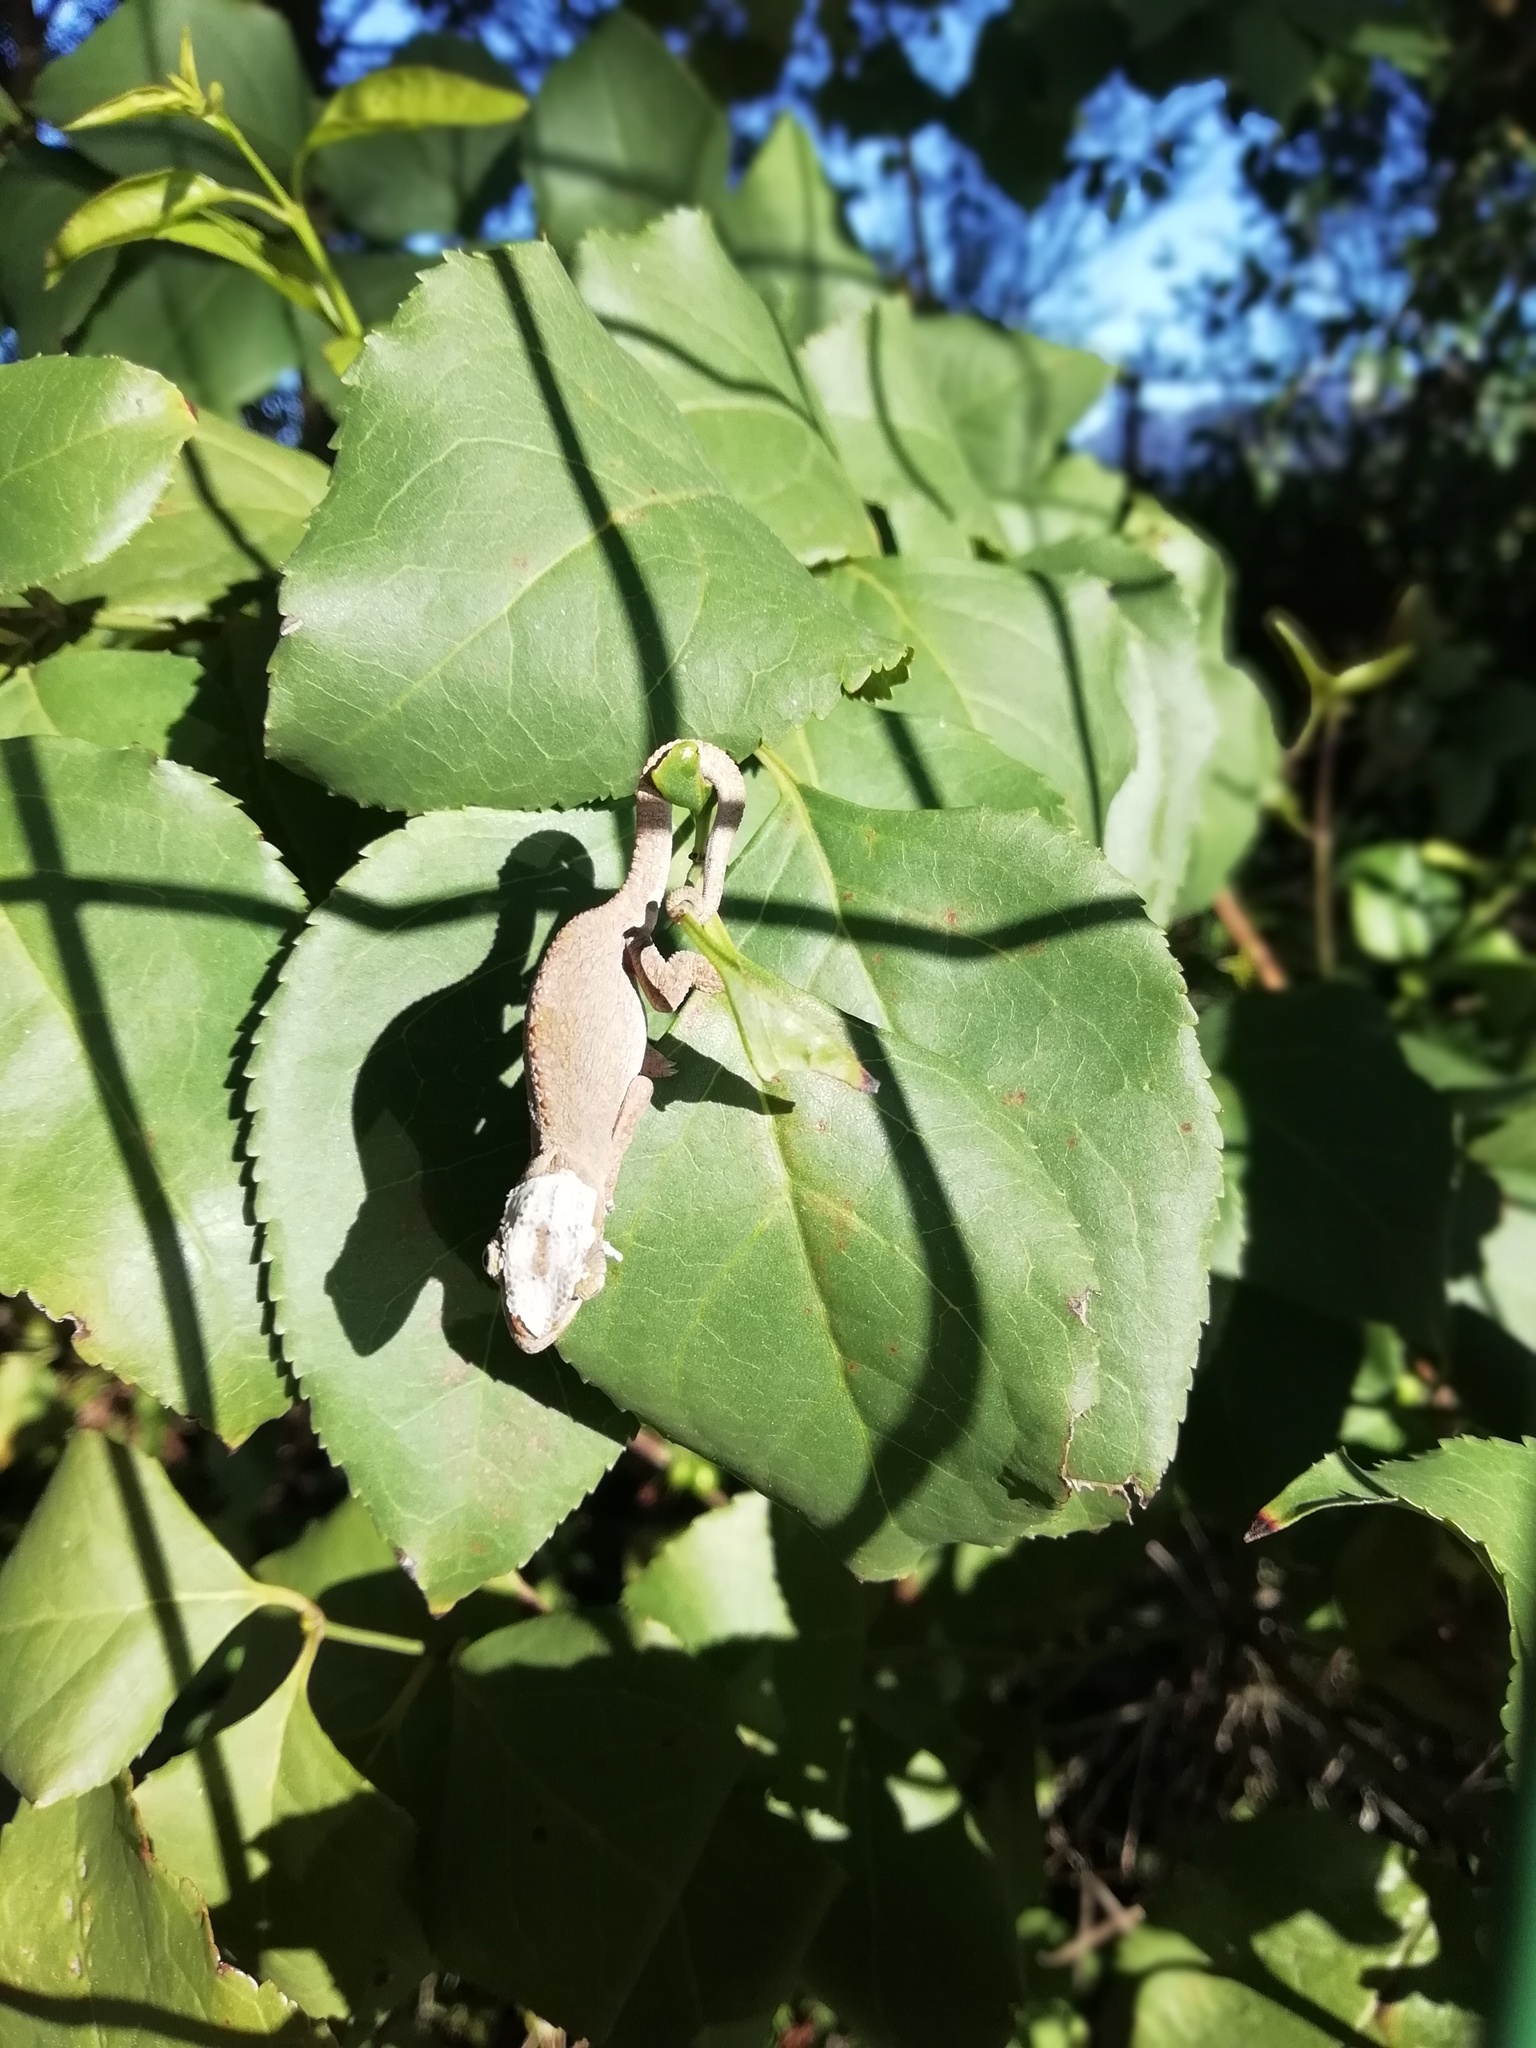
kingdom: Animalia
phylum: Chordata
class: Squamata
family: Chamaeleonidae
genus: Bradypodion
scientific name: Bradypodion damaranum
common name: Knysna dwarf chameleon
